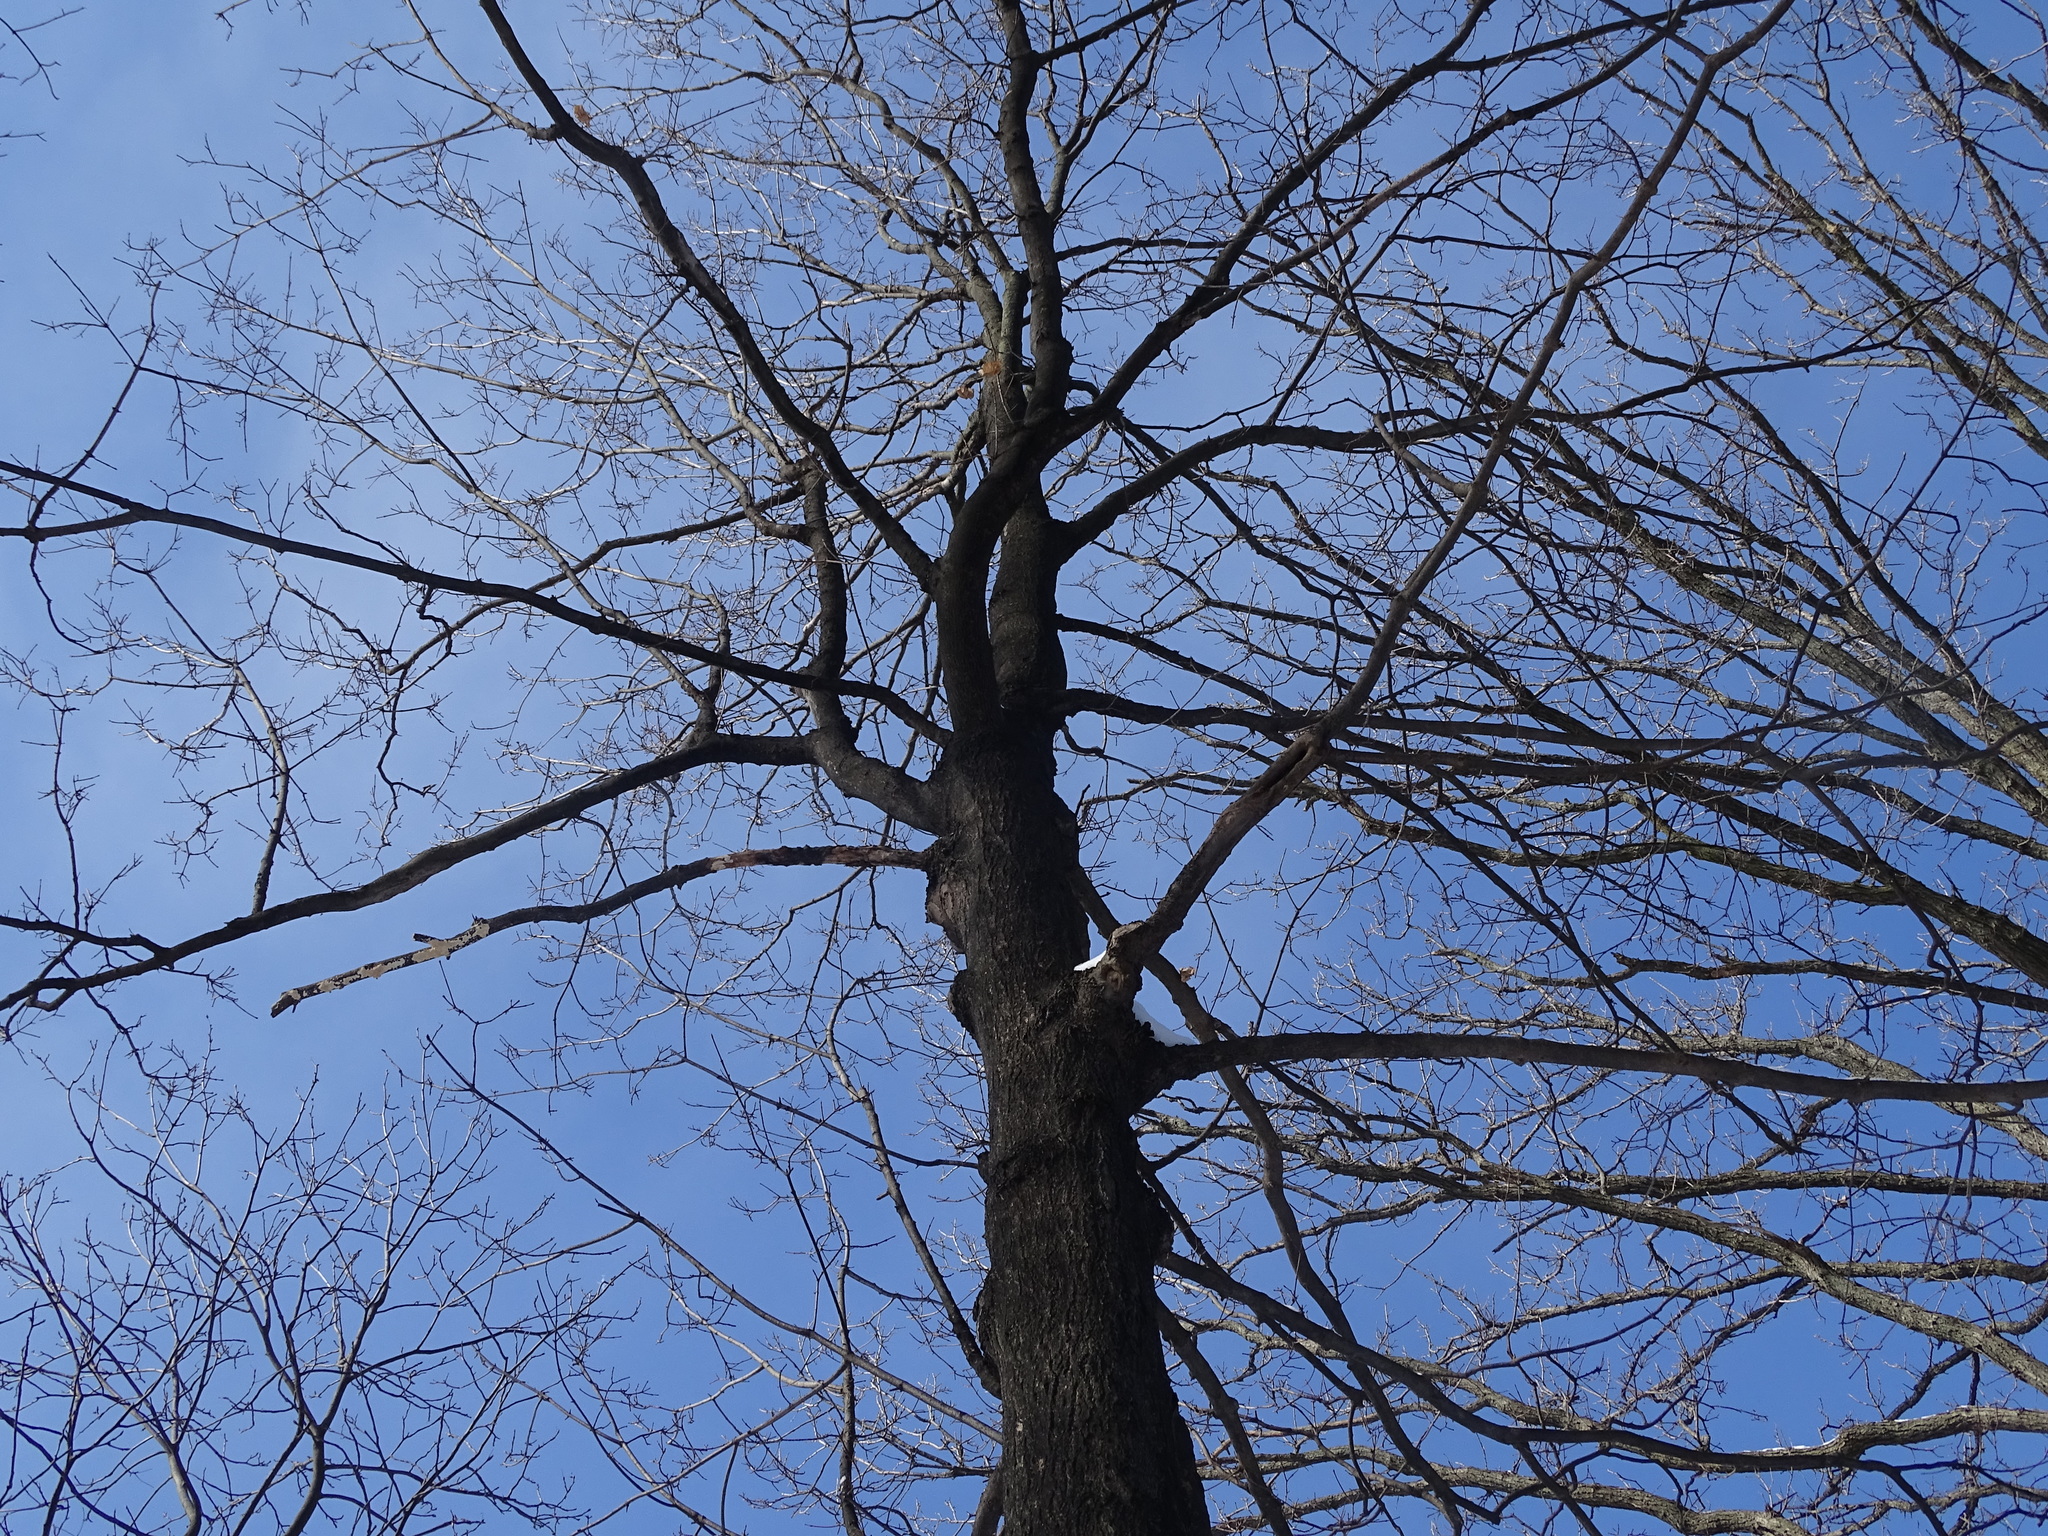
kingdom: Plantae
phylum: Tracheophyta
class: Magnoliopsida
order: Sapindales
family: Sapindaceae
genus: Acer
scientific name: Acer platanoides
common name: Norway maple
